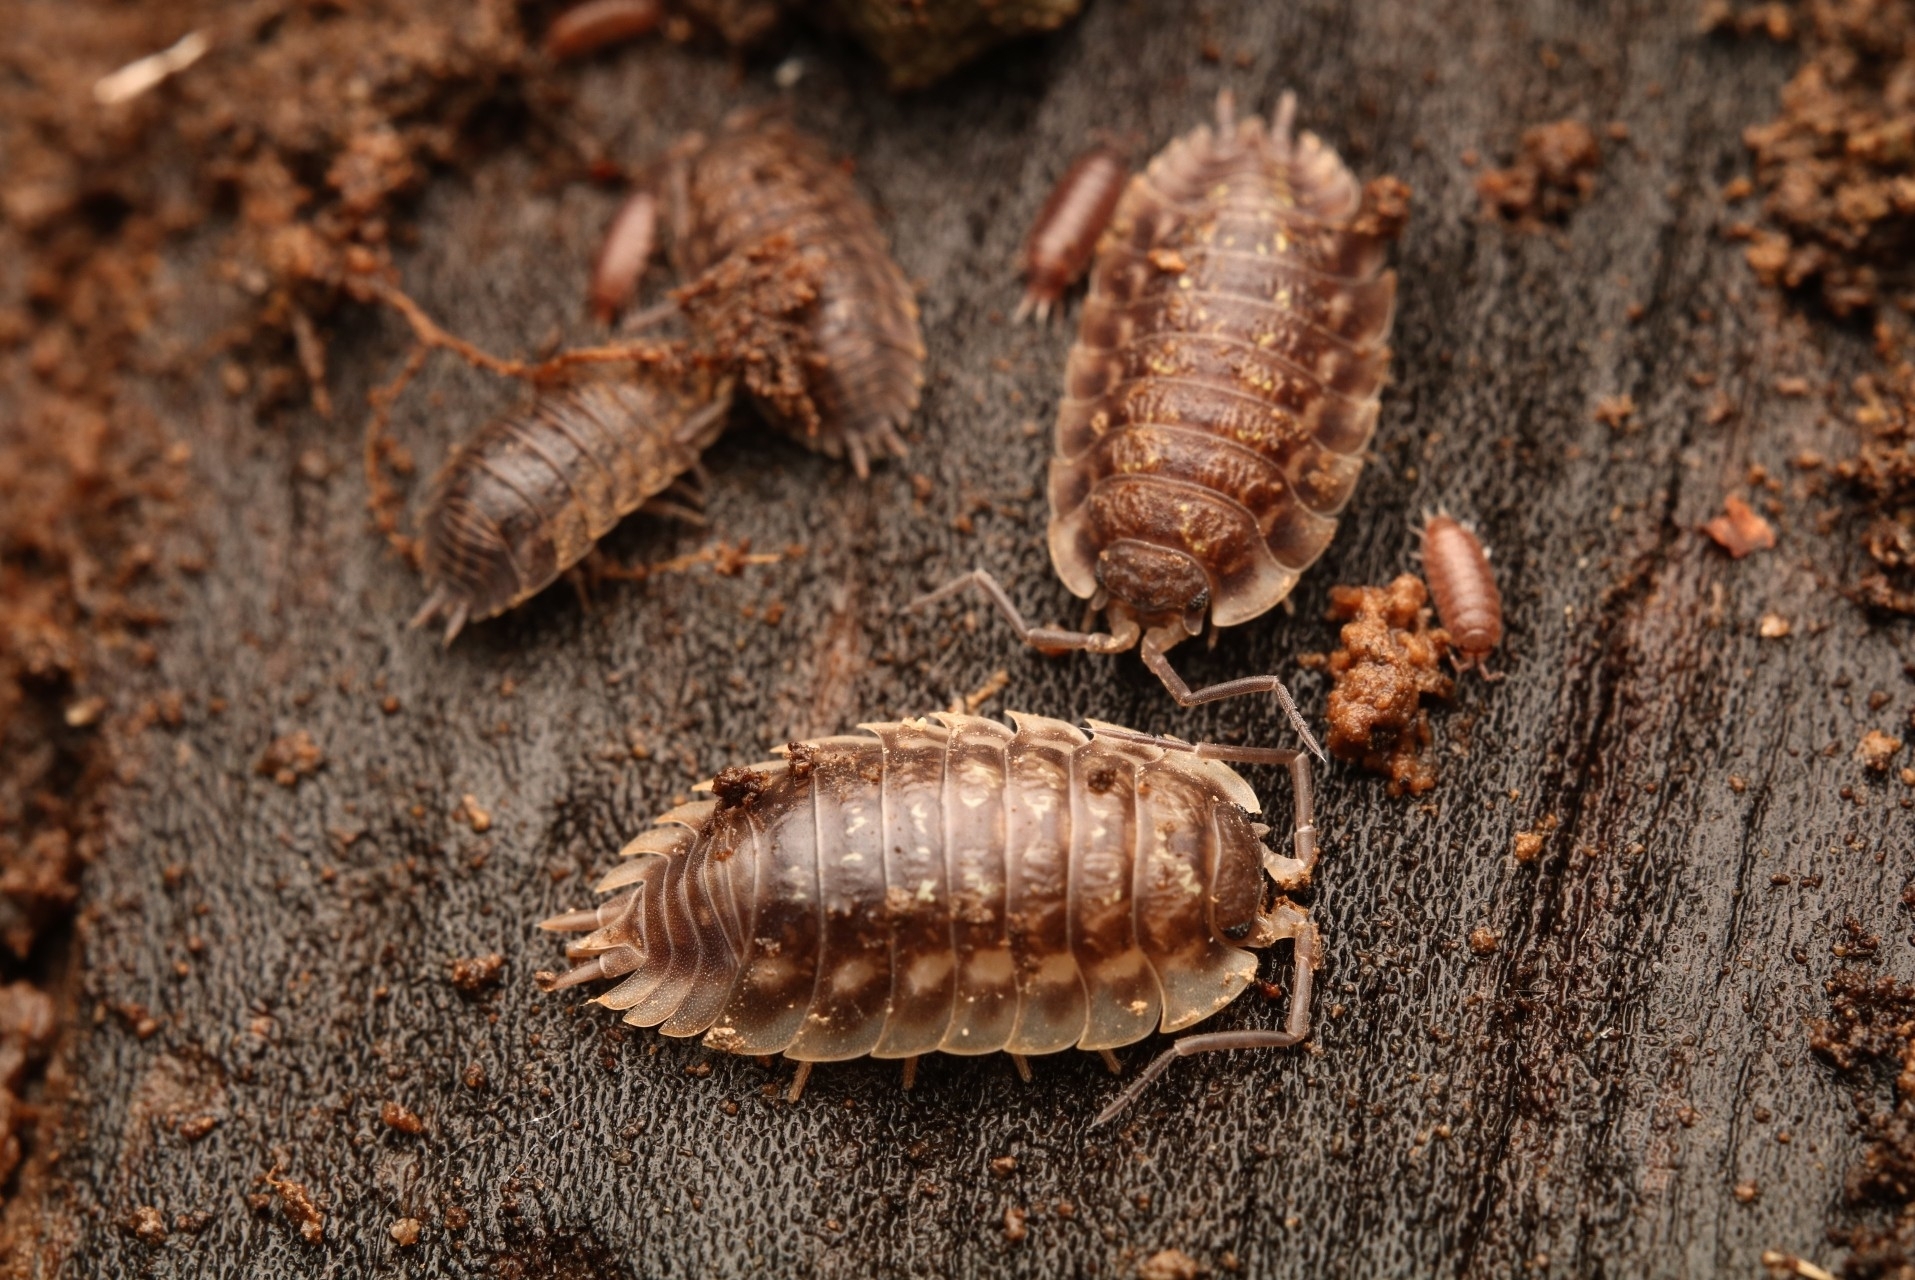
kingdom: Animalia
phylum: Arthropoda
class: Malacostraca
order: Isopoda
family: Oniscidae
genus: Oniscus
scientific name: Oniscus asellus
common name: Common shiny woodlouse
